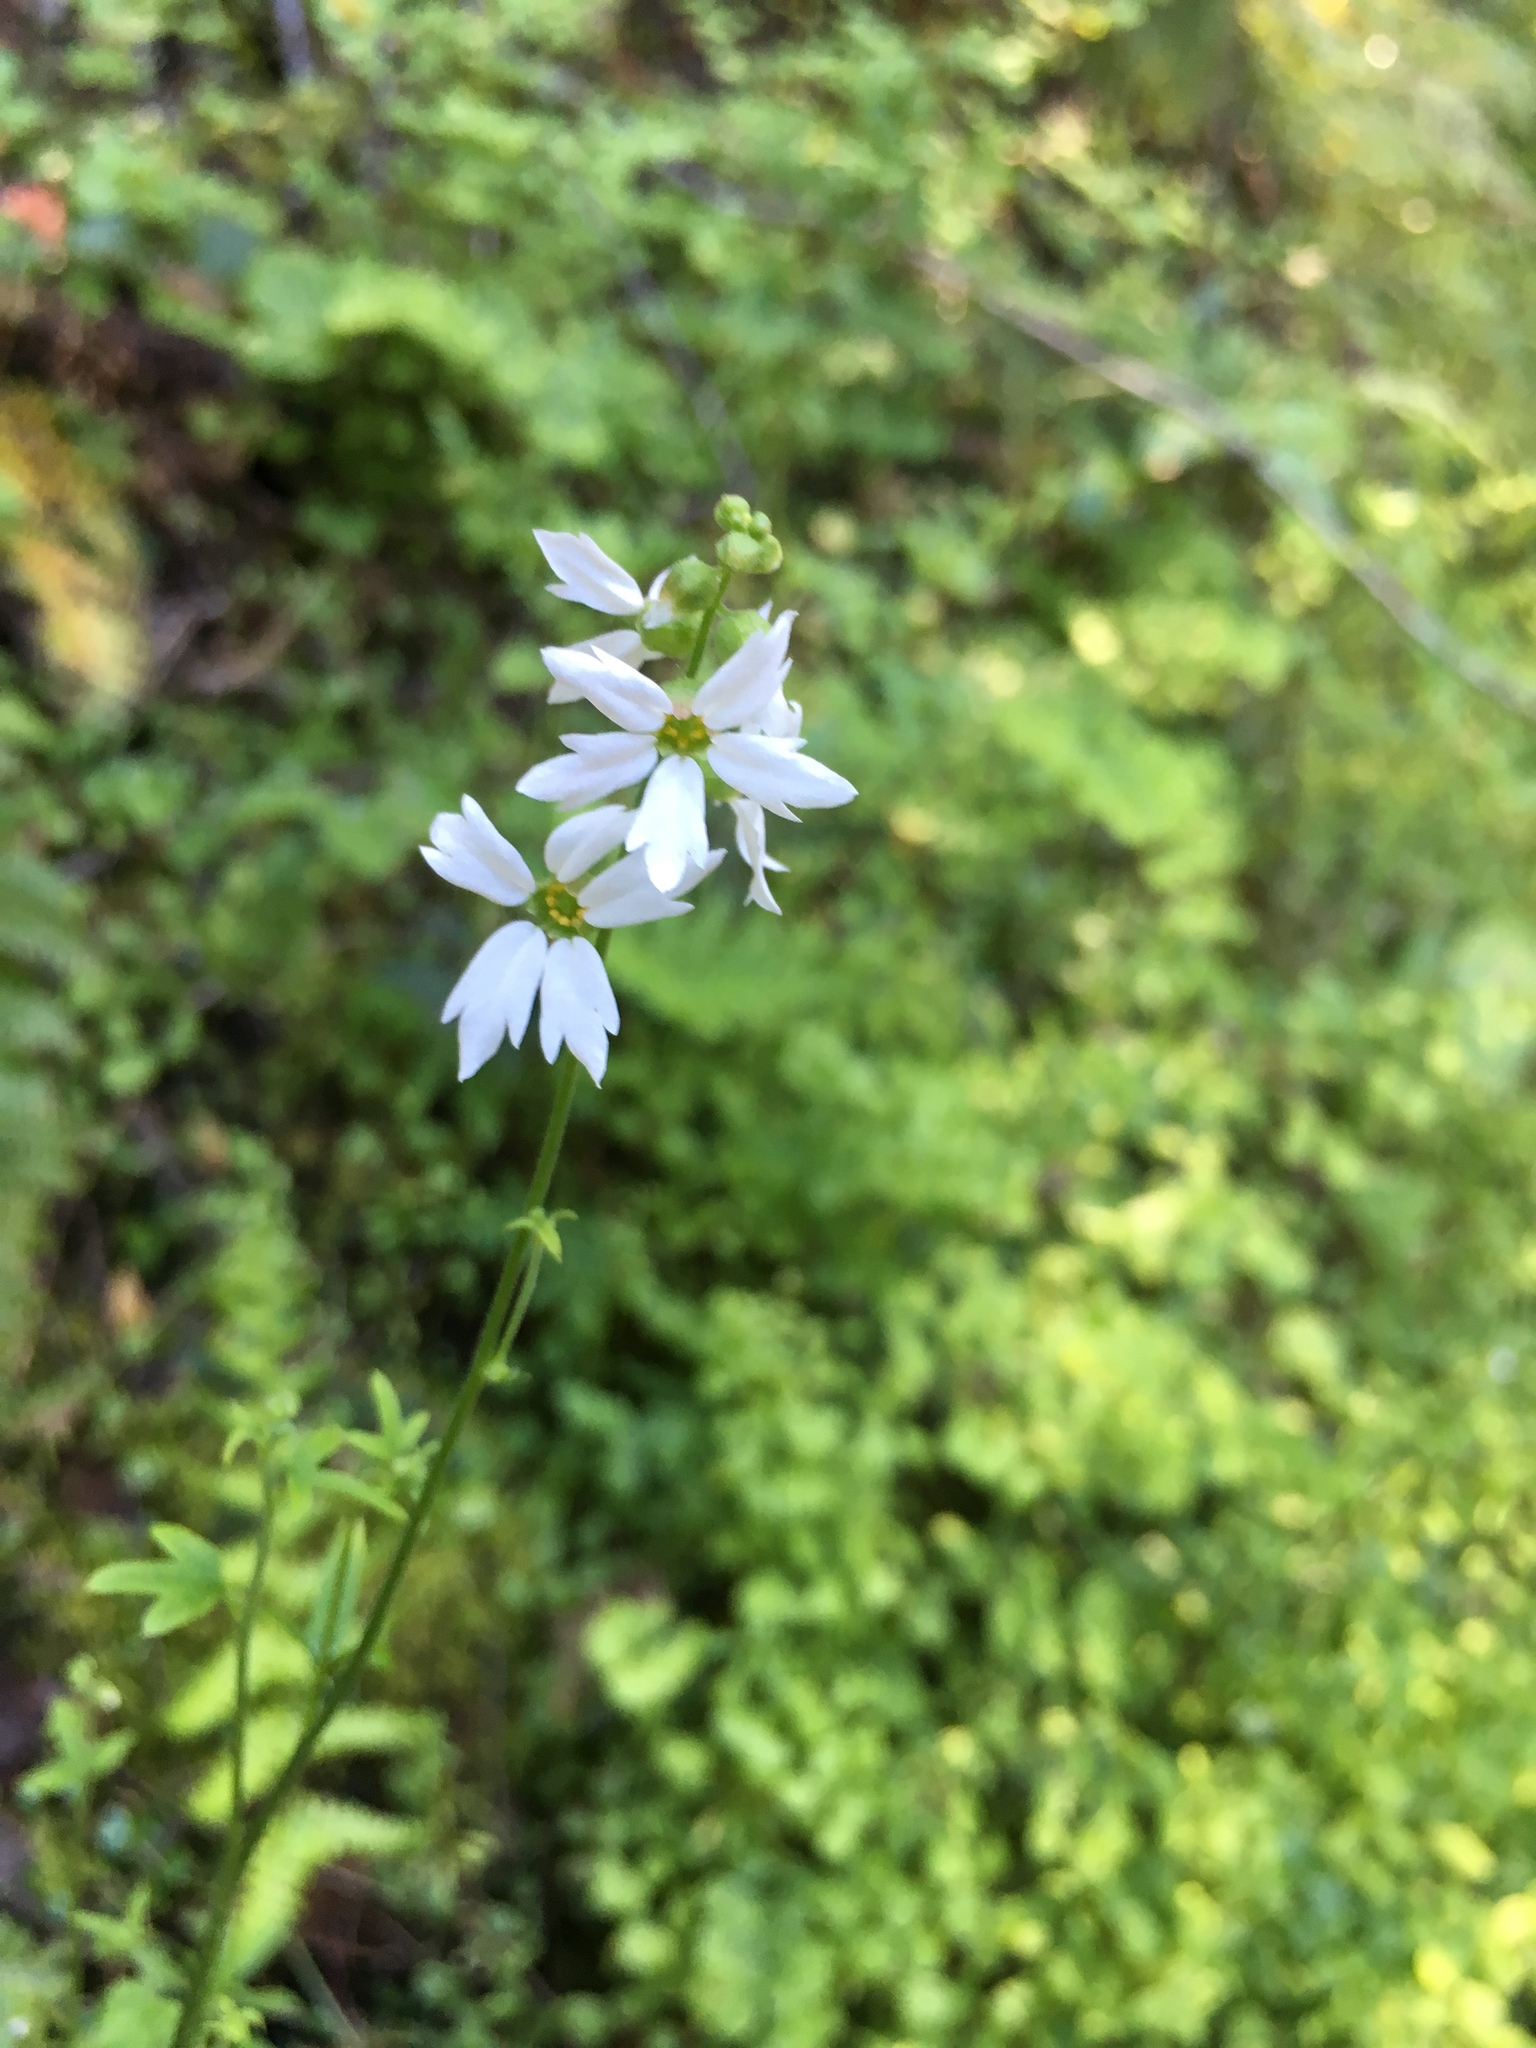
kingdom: Plantae
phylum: Tracheophyta
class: Magnoliopsida
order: Saxifragales
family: Saxifragaceae
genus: Lithophragma
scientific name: Lithophragma heterophyllum
